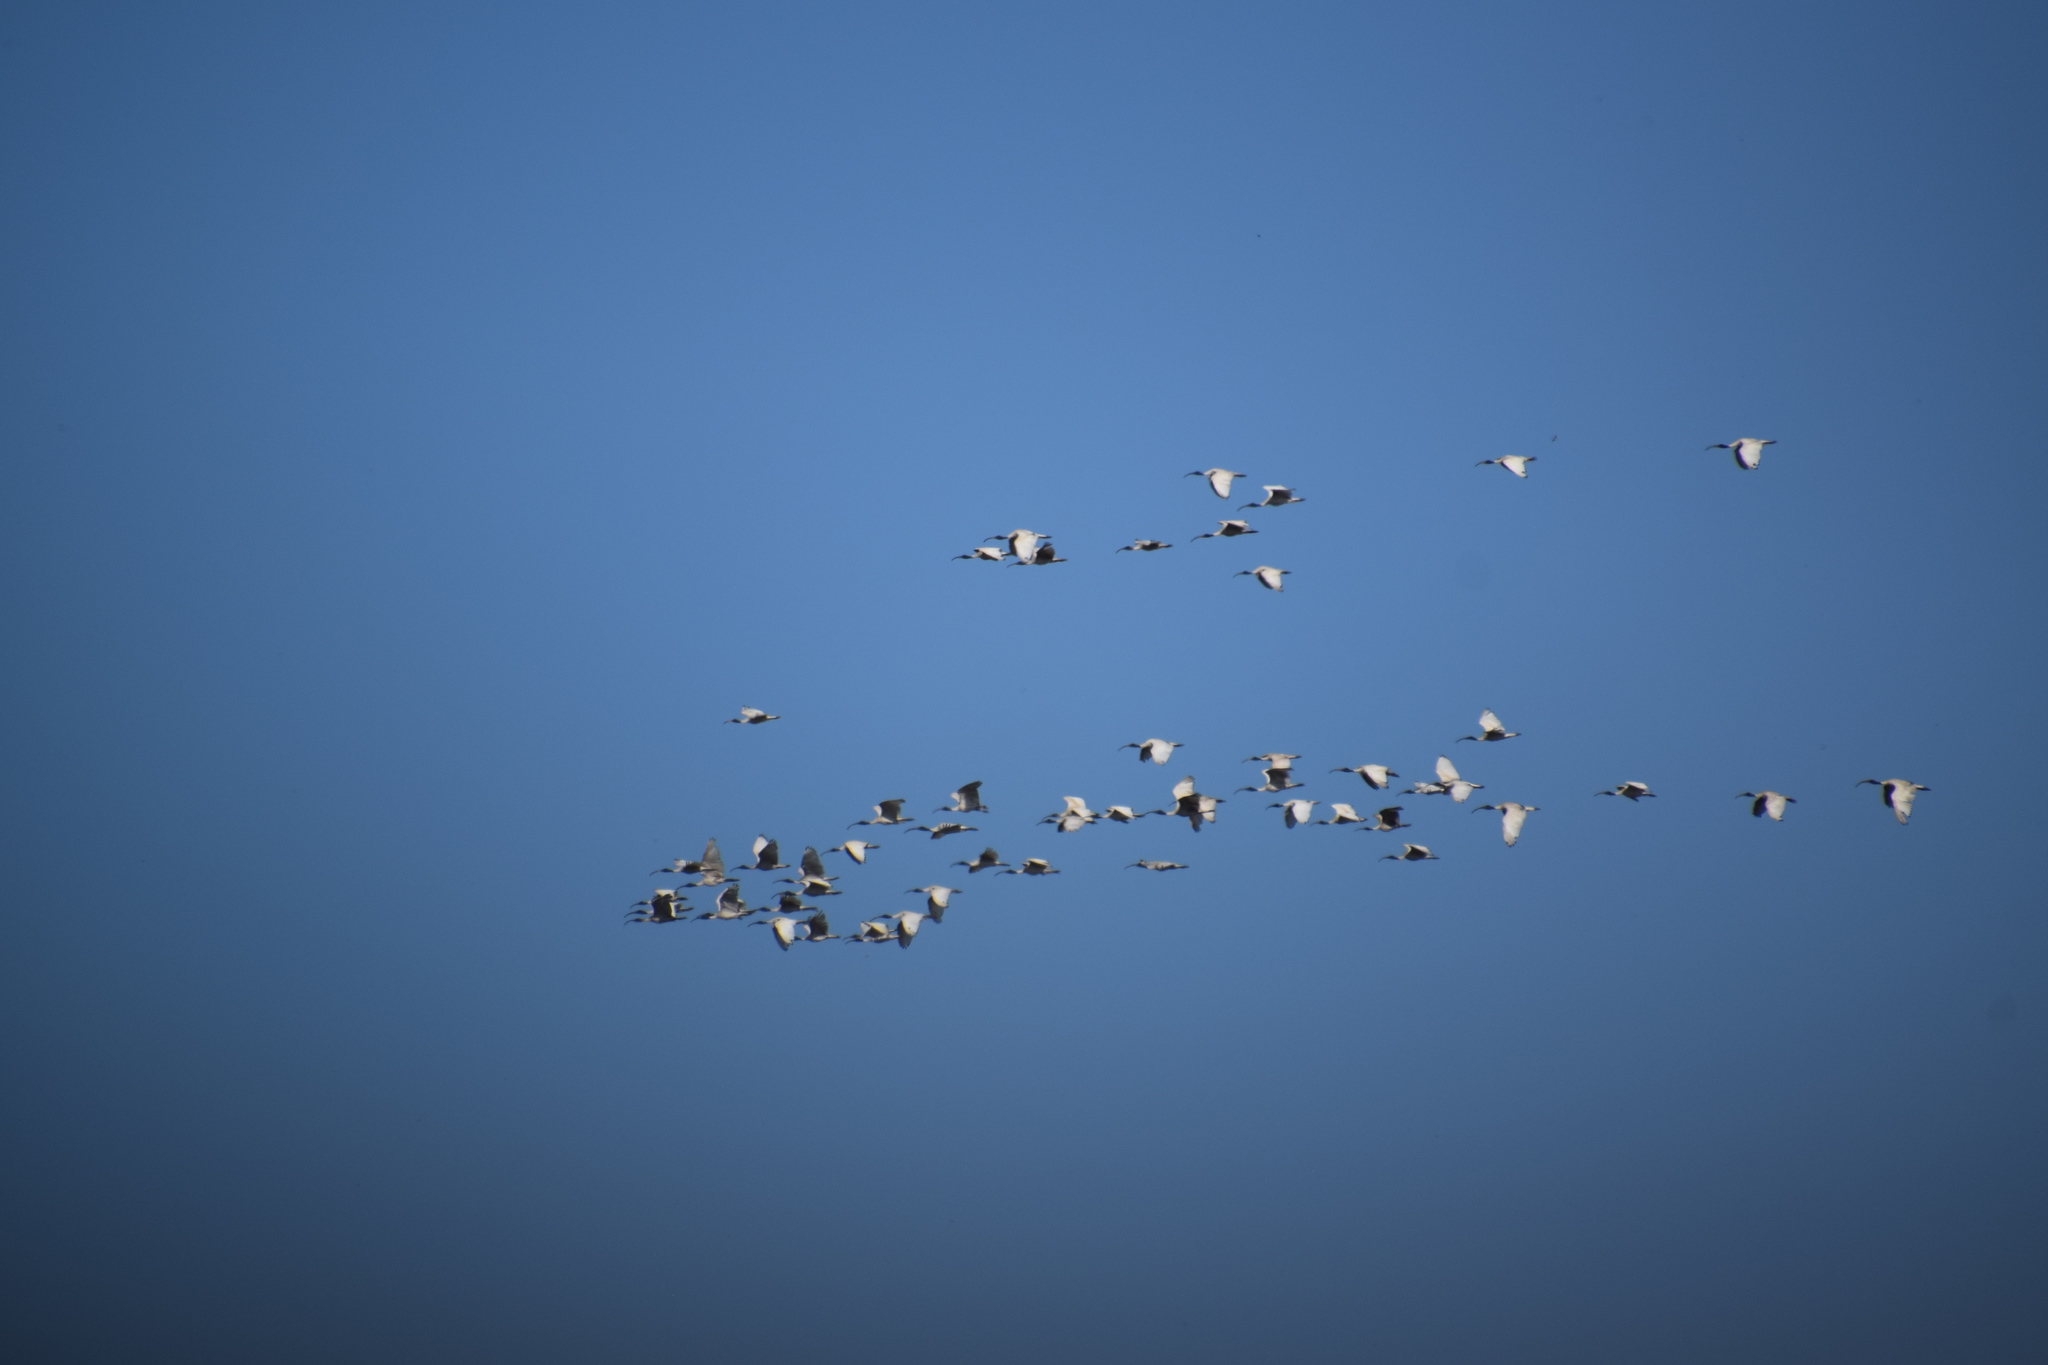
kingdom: Animalia
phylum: Chordata
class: Aves
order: Pelecaniformes
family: Threskiornithidae
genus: Threskiornis
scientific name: Threskiornis molucca
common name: Australian white ibis
